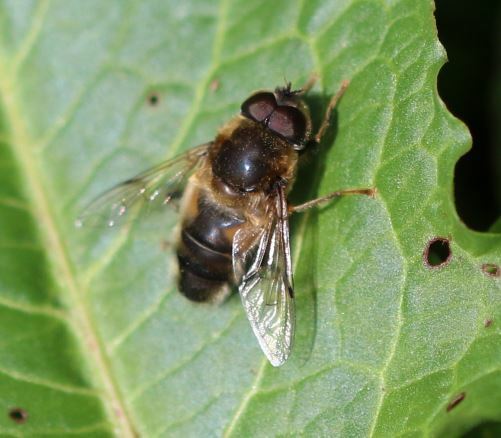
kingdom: Animalia
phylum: Arthropoda
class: Insecta
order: Diptera
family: Syrphidae
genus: Eristalis
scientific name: Eristalis pertinax
